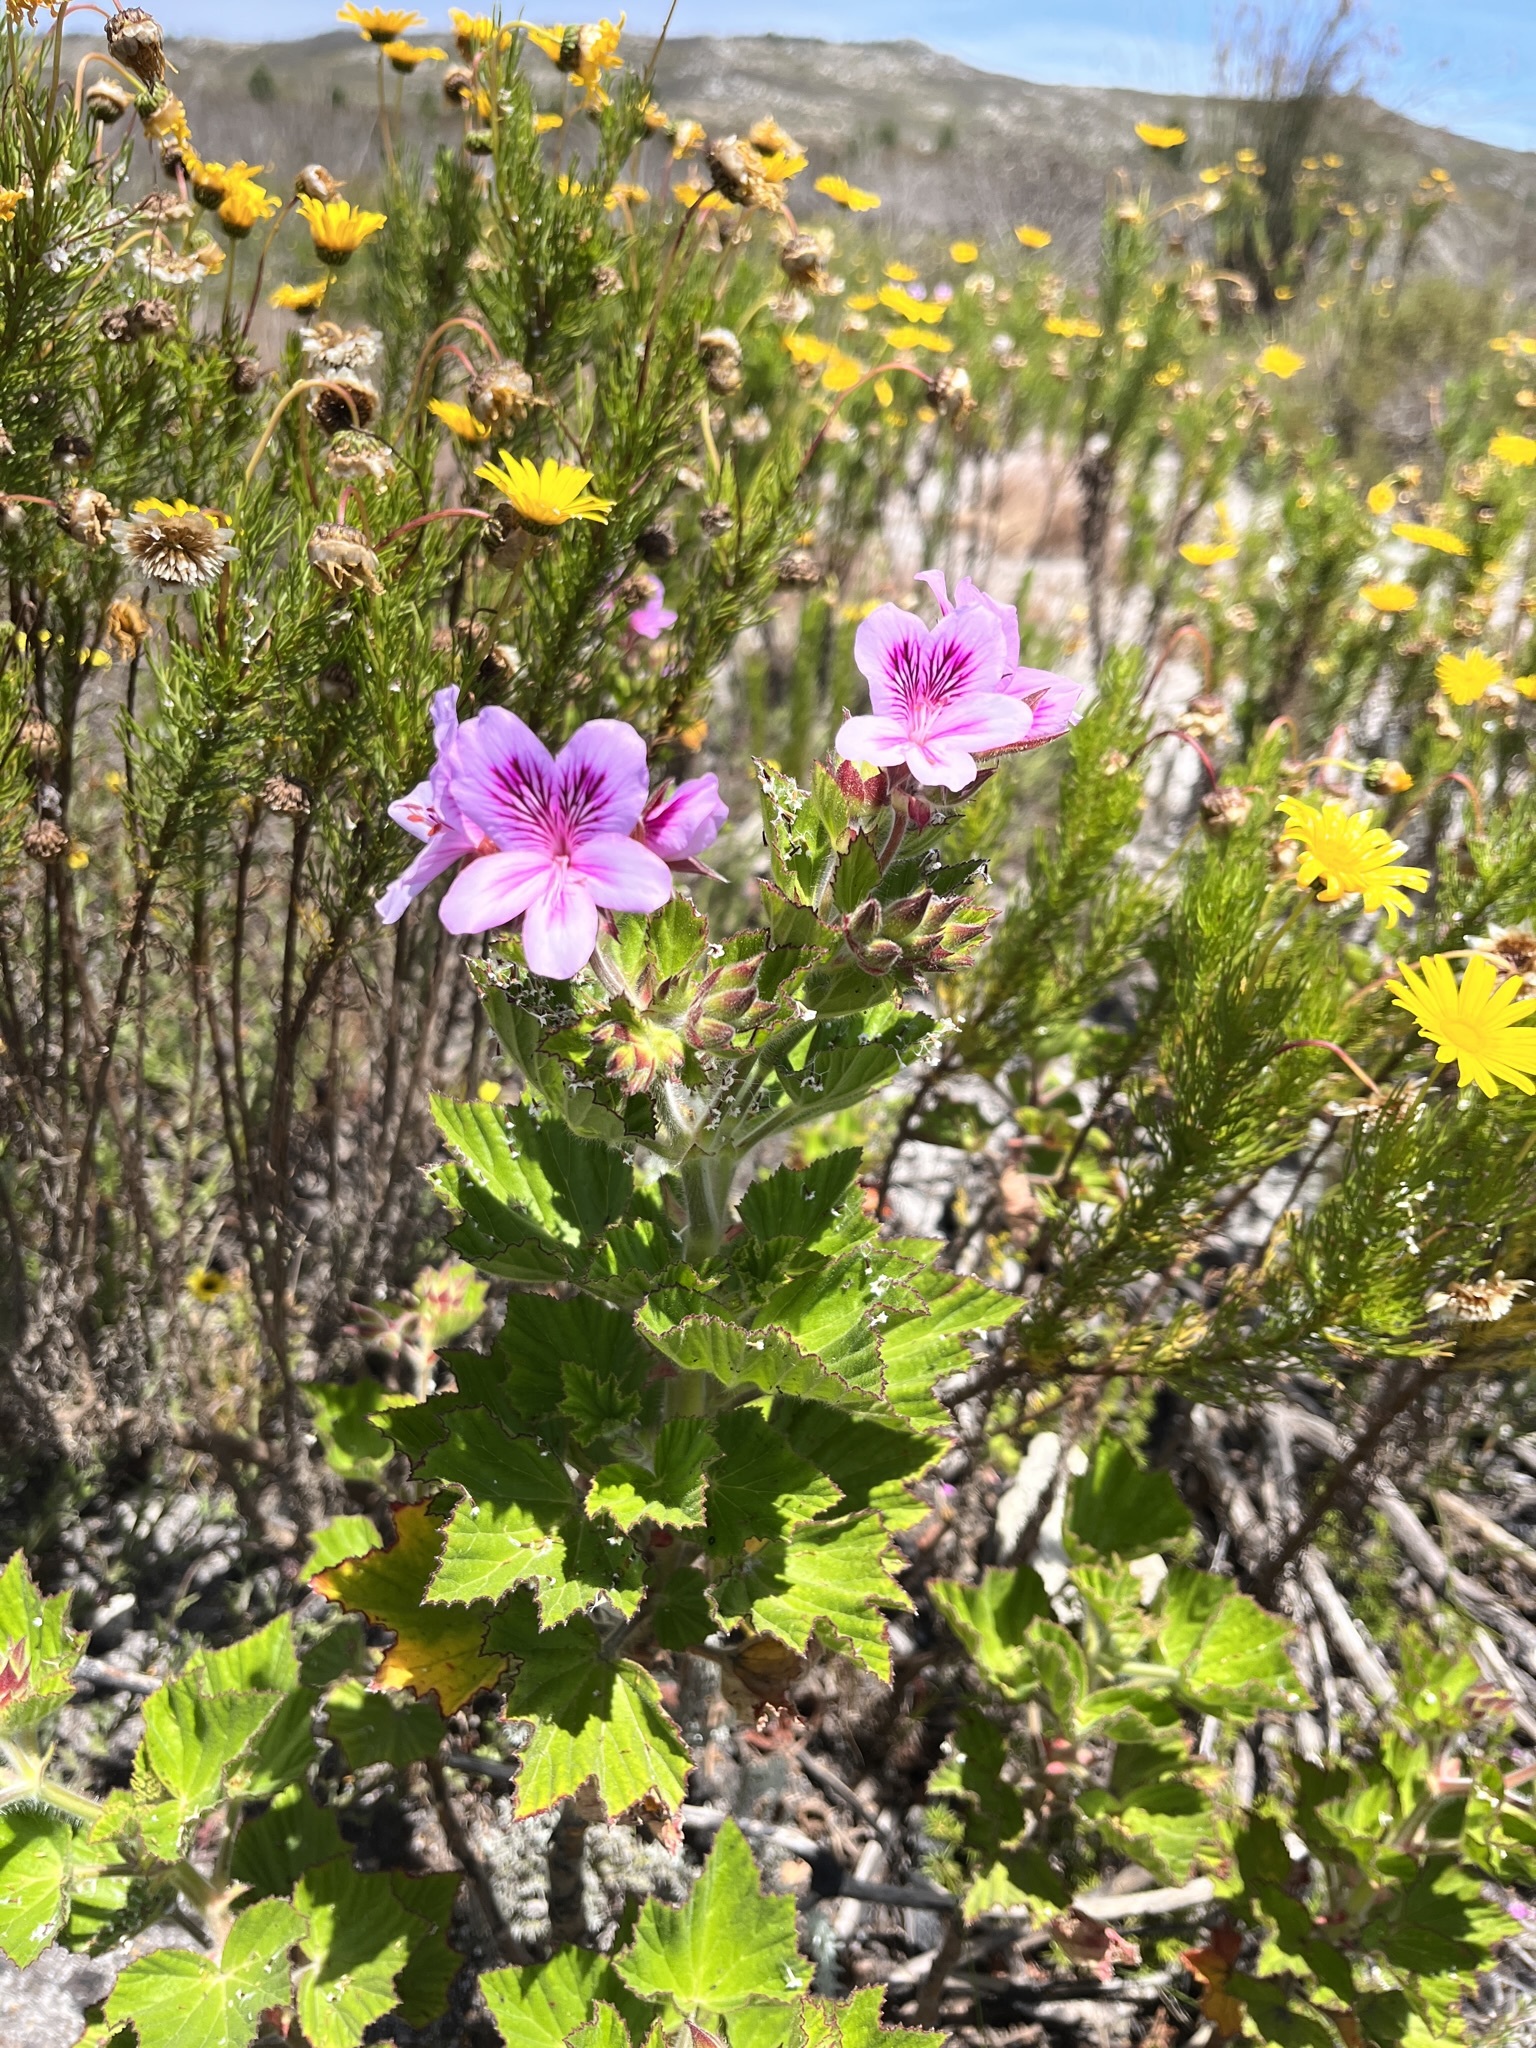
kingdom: Plantae
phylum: Tracheophyta
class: Magnoliopsida
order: Geraniales
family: Geraniaceae
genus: Pelargonium
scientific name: Pelargonium cucullatum
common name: Tree pelargonium
